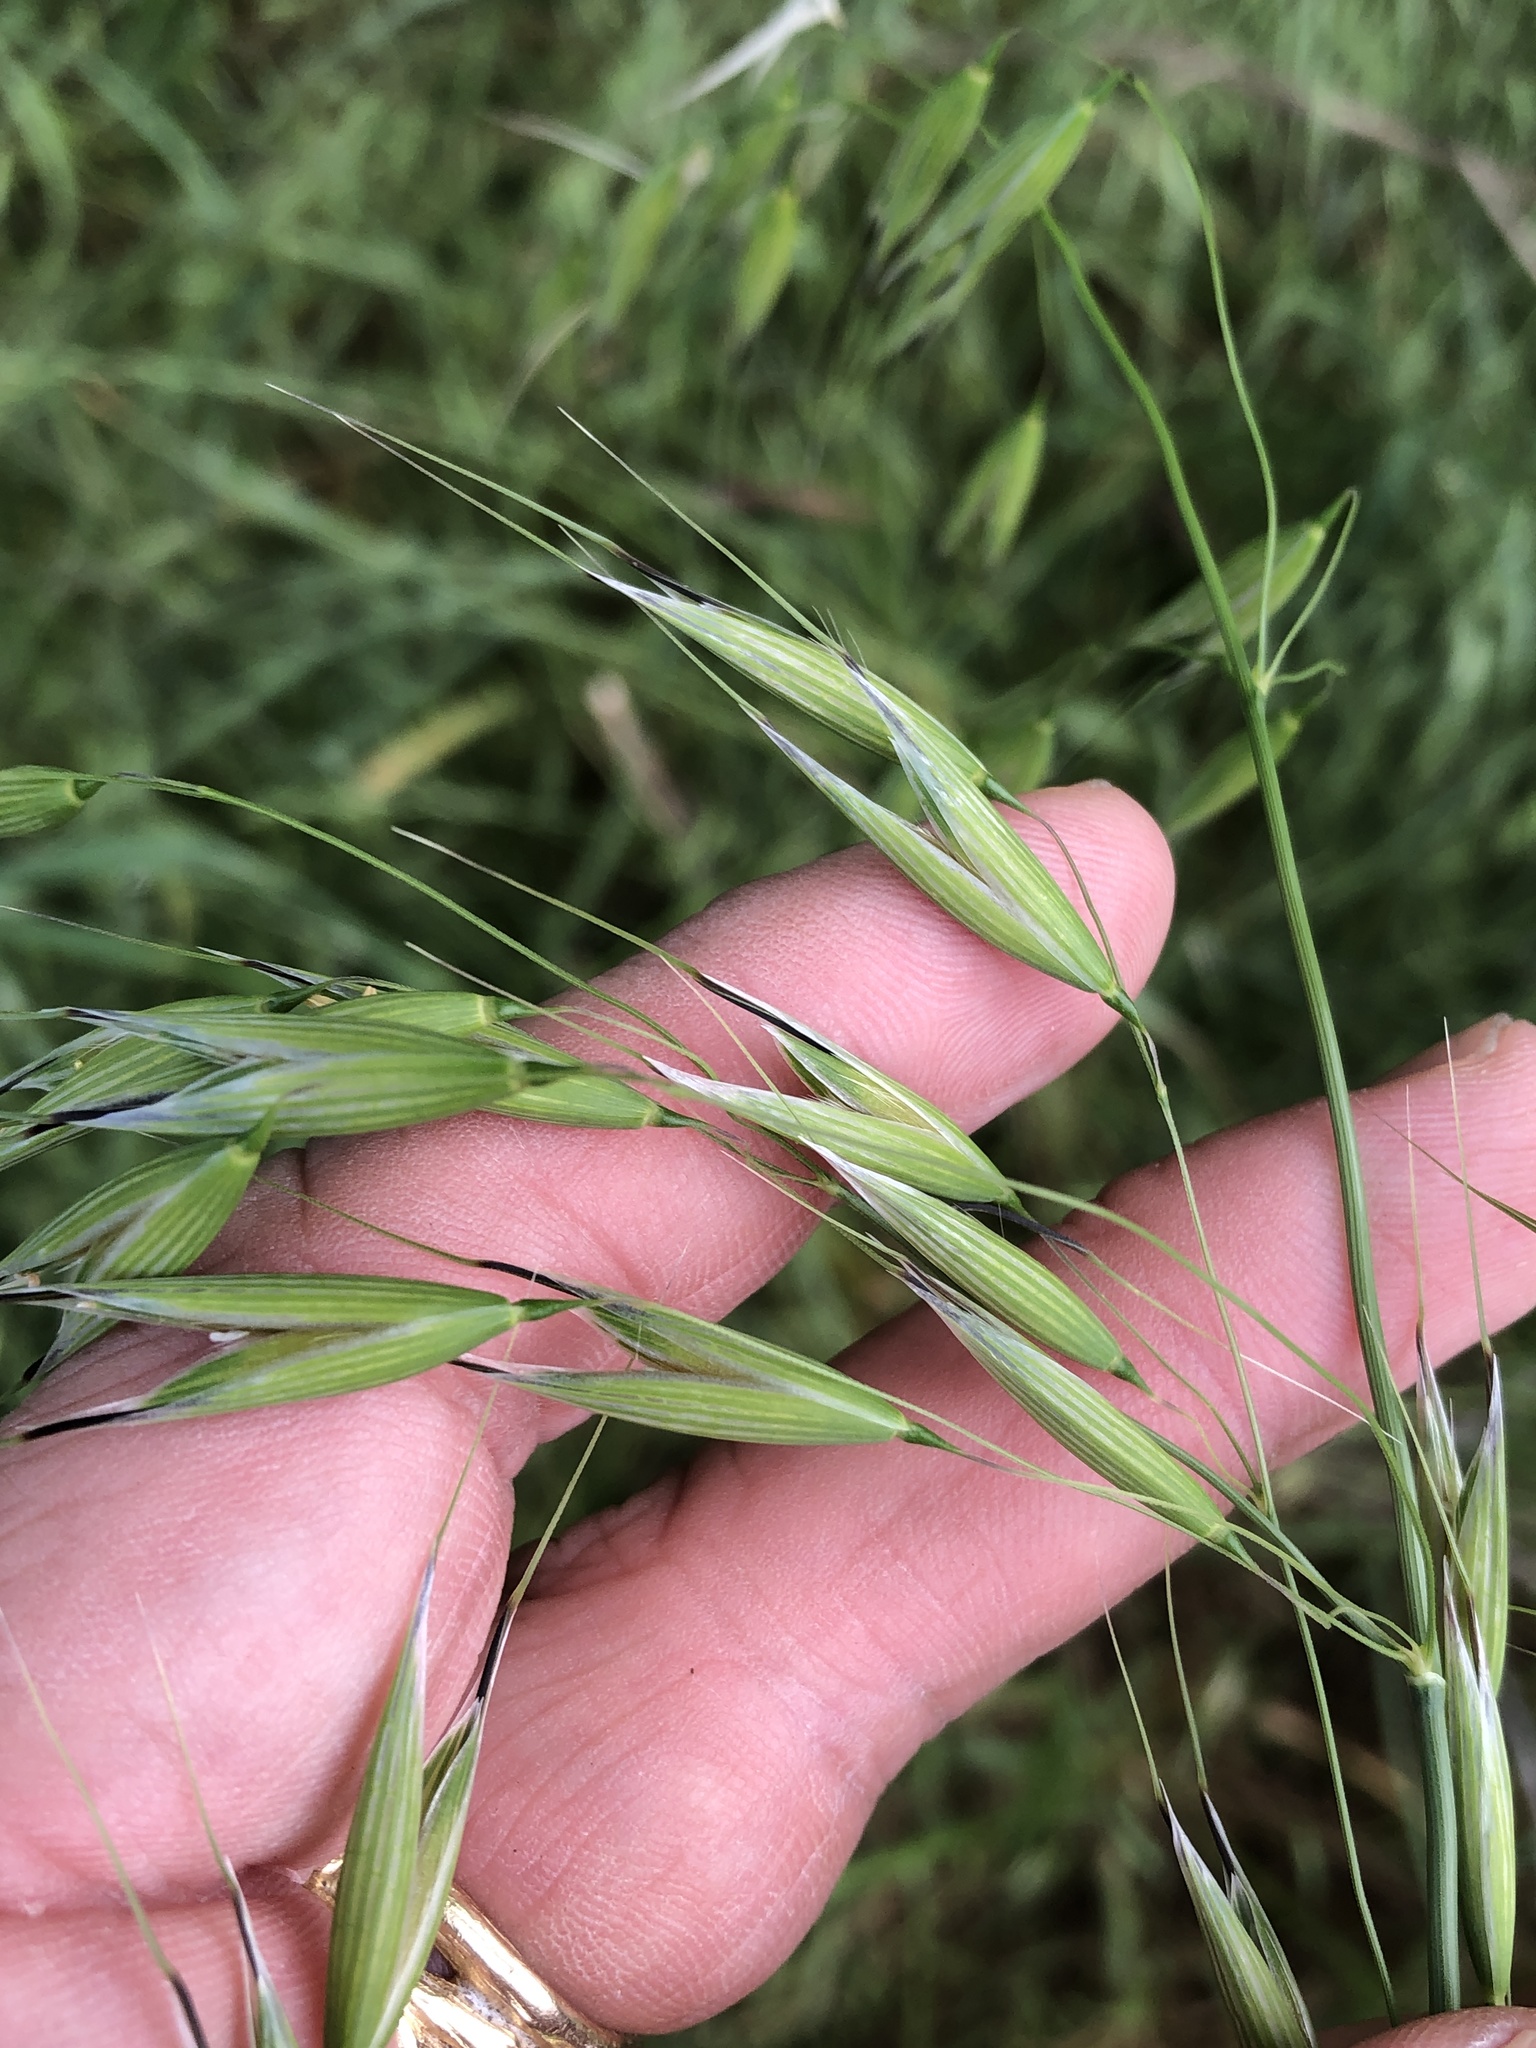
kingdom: Plantae
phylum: Tracheophyta
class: Liliopsida
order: Poales
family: Poaceae
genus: Avena
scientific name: Avena fatua
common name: Wild oat
